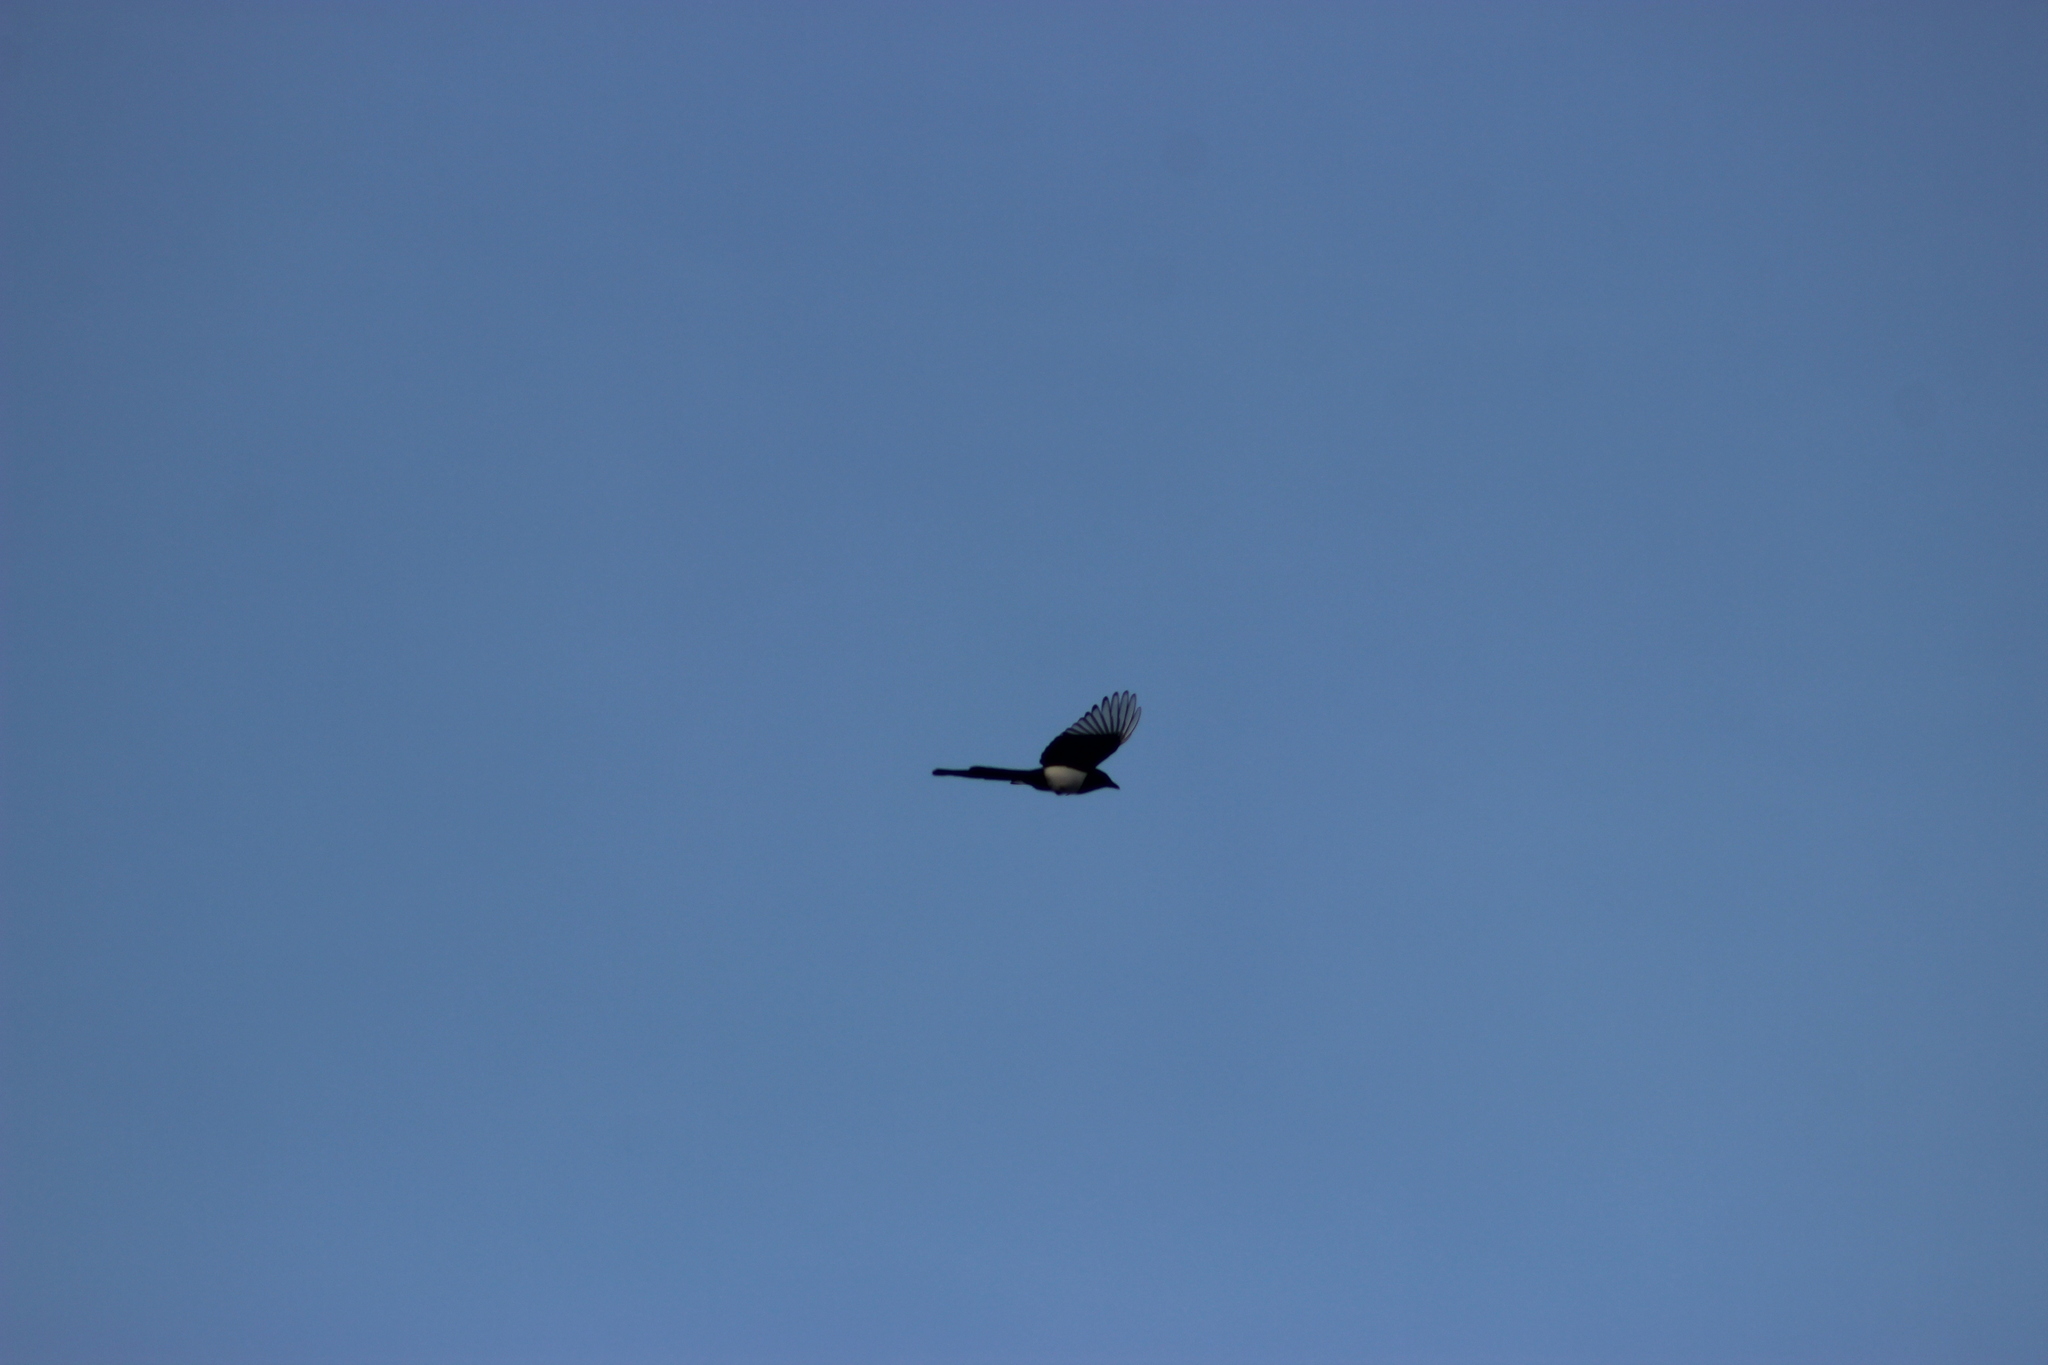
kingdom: Animalia
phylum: Chordata
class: Aves
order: Passeriformes
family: Corvidae
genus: Pica
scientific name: Pica pica
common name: Eurasian magpie
